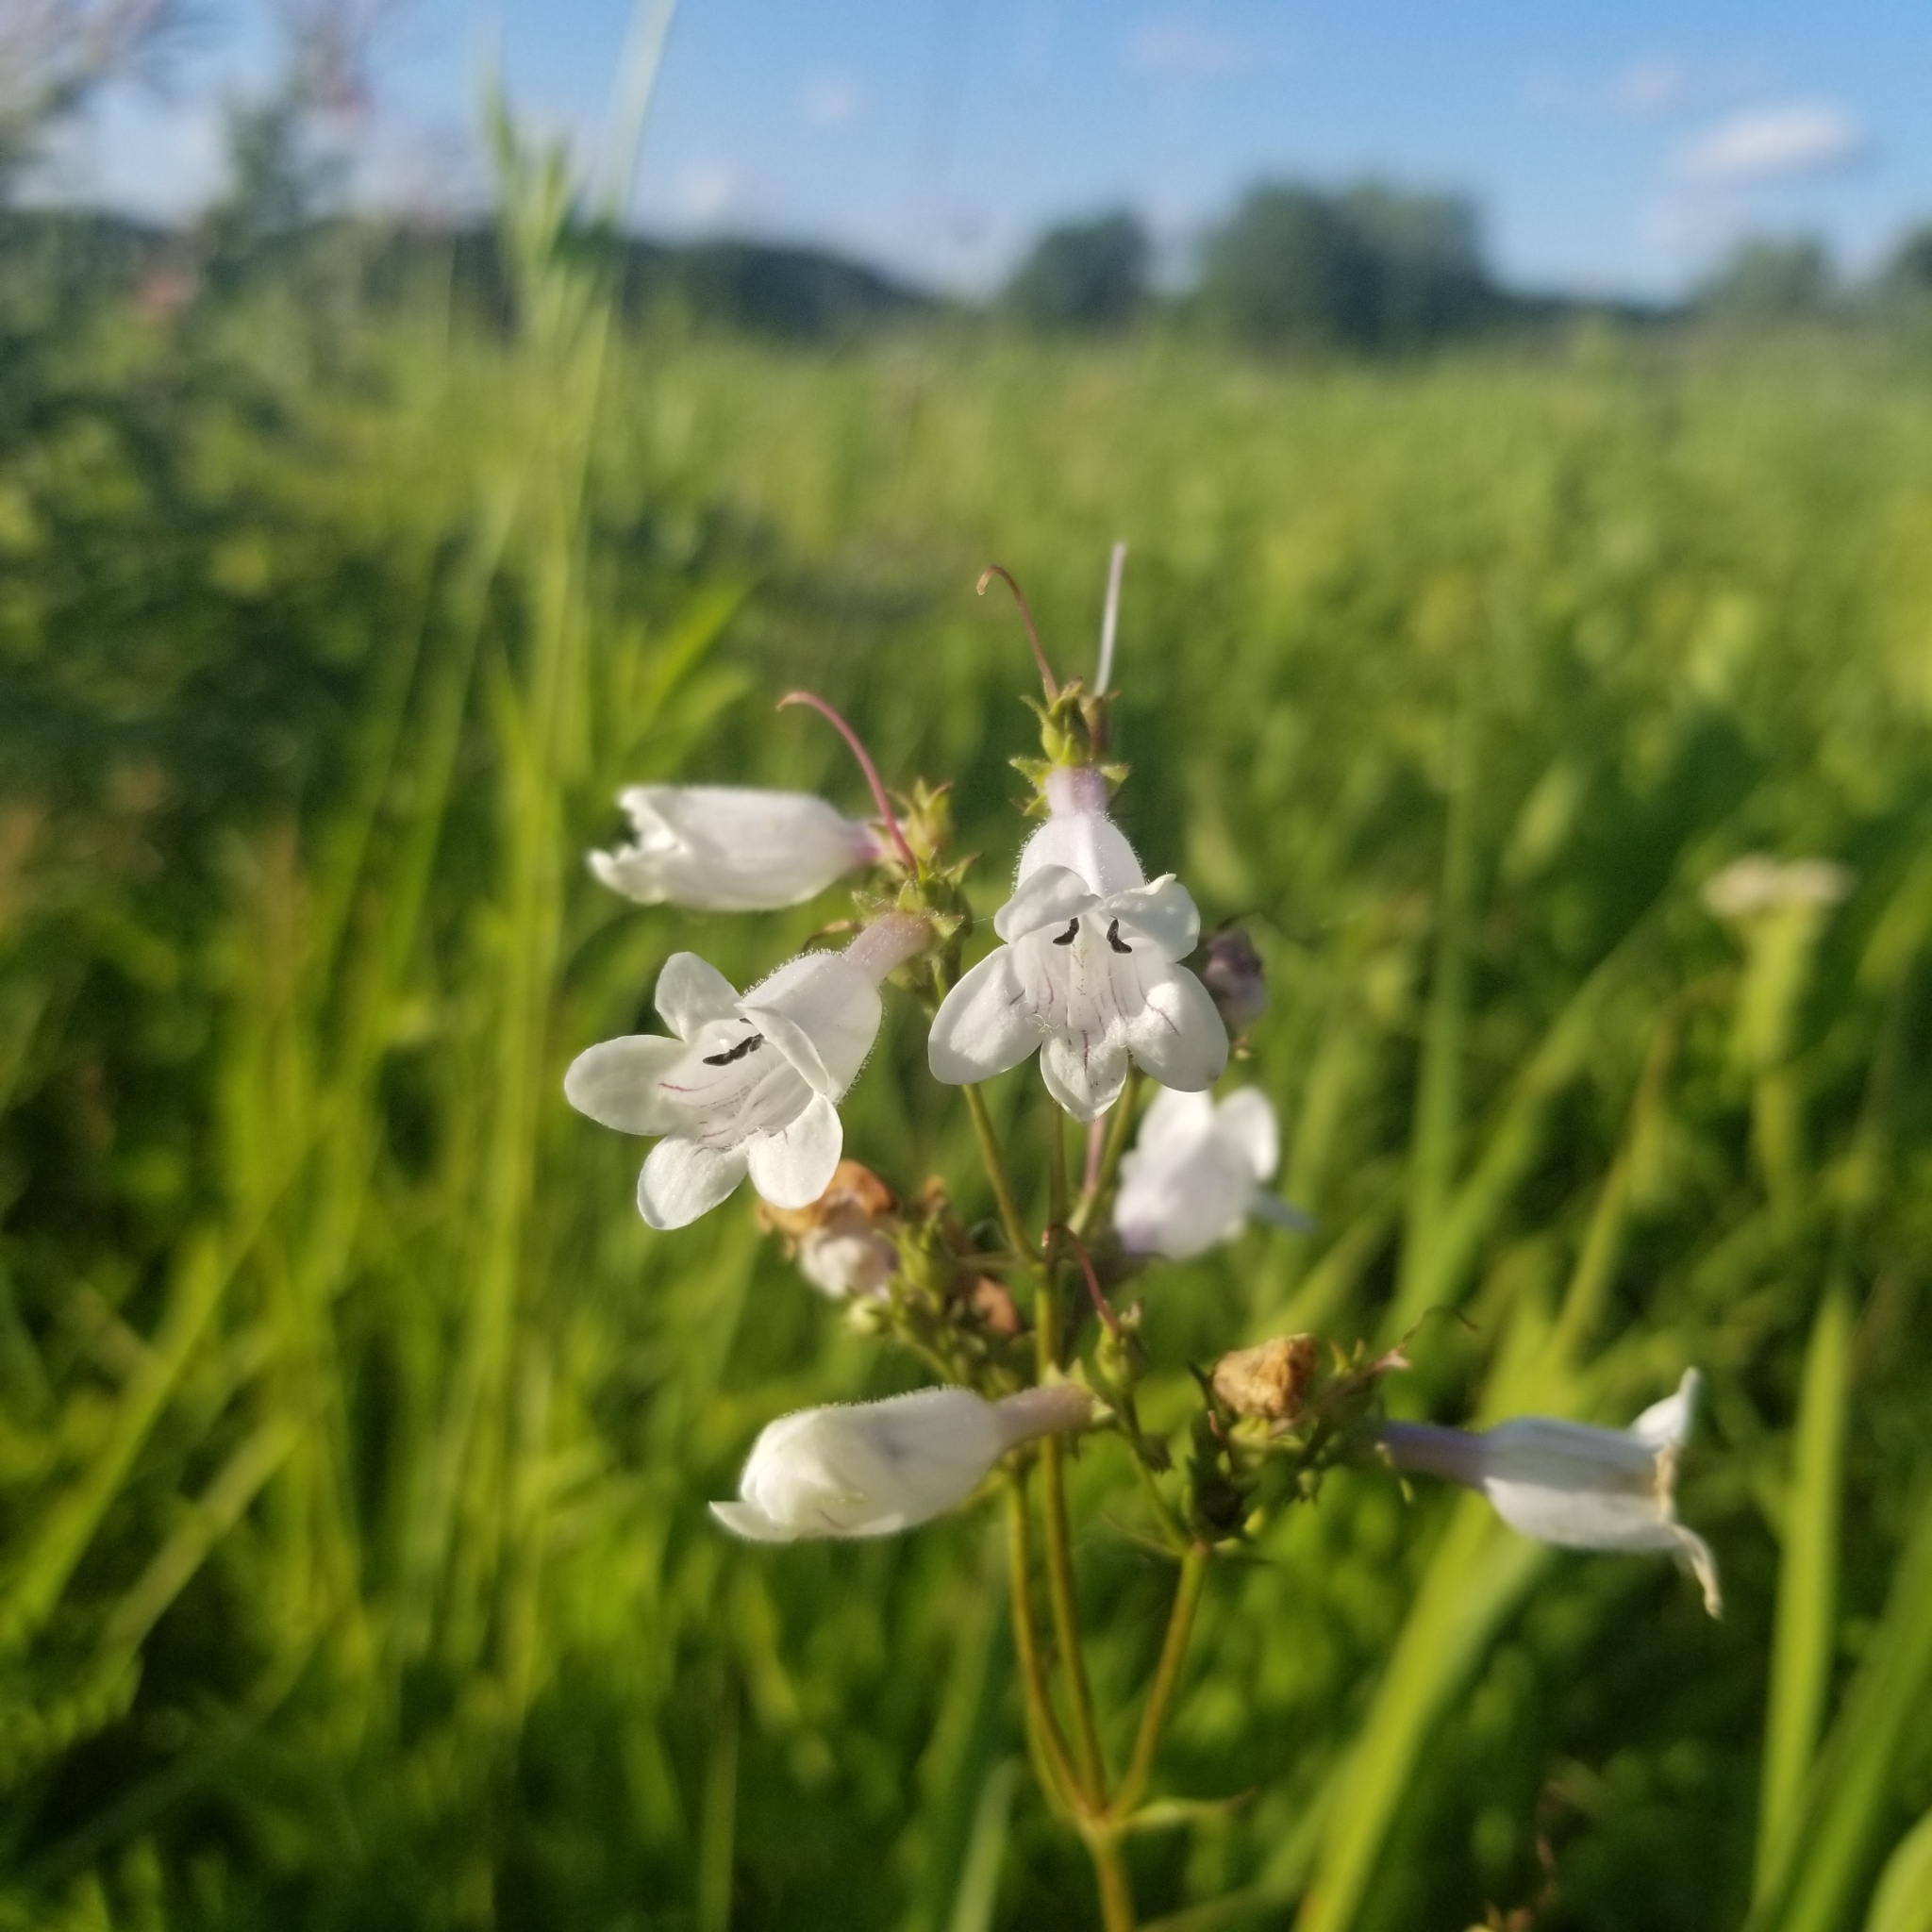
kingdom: Plantae
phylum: Tracheophyta
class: Magnoliopsida
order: Lamiales
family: Plantaginaceae
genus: Penstemon
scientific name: Penstemon digitalis
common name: Foxglove beardtongue
